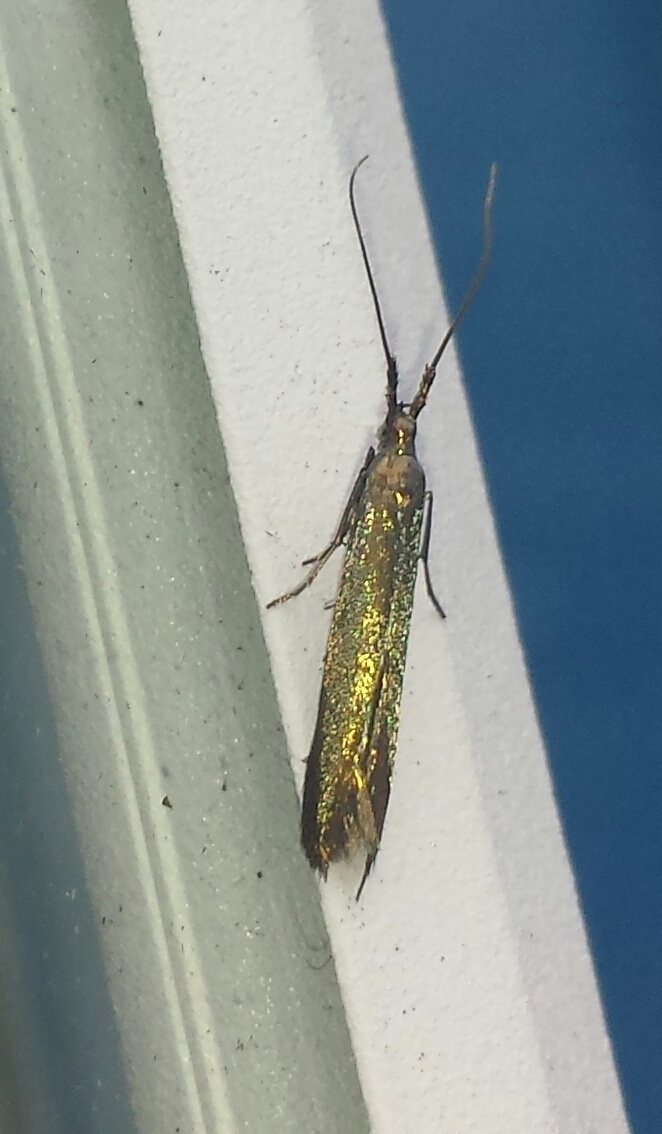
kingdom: Animalia
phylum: Arthropoda
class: Insecta
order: Lepidoptera
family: Coleophoridae
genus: Coleophora
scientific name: Coleophora trifolii
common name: Large clover case-bearer
